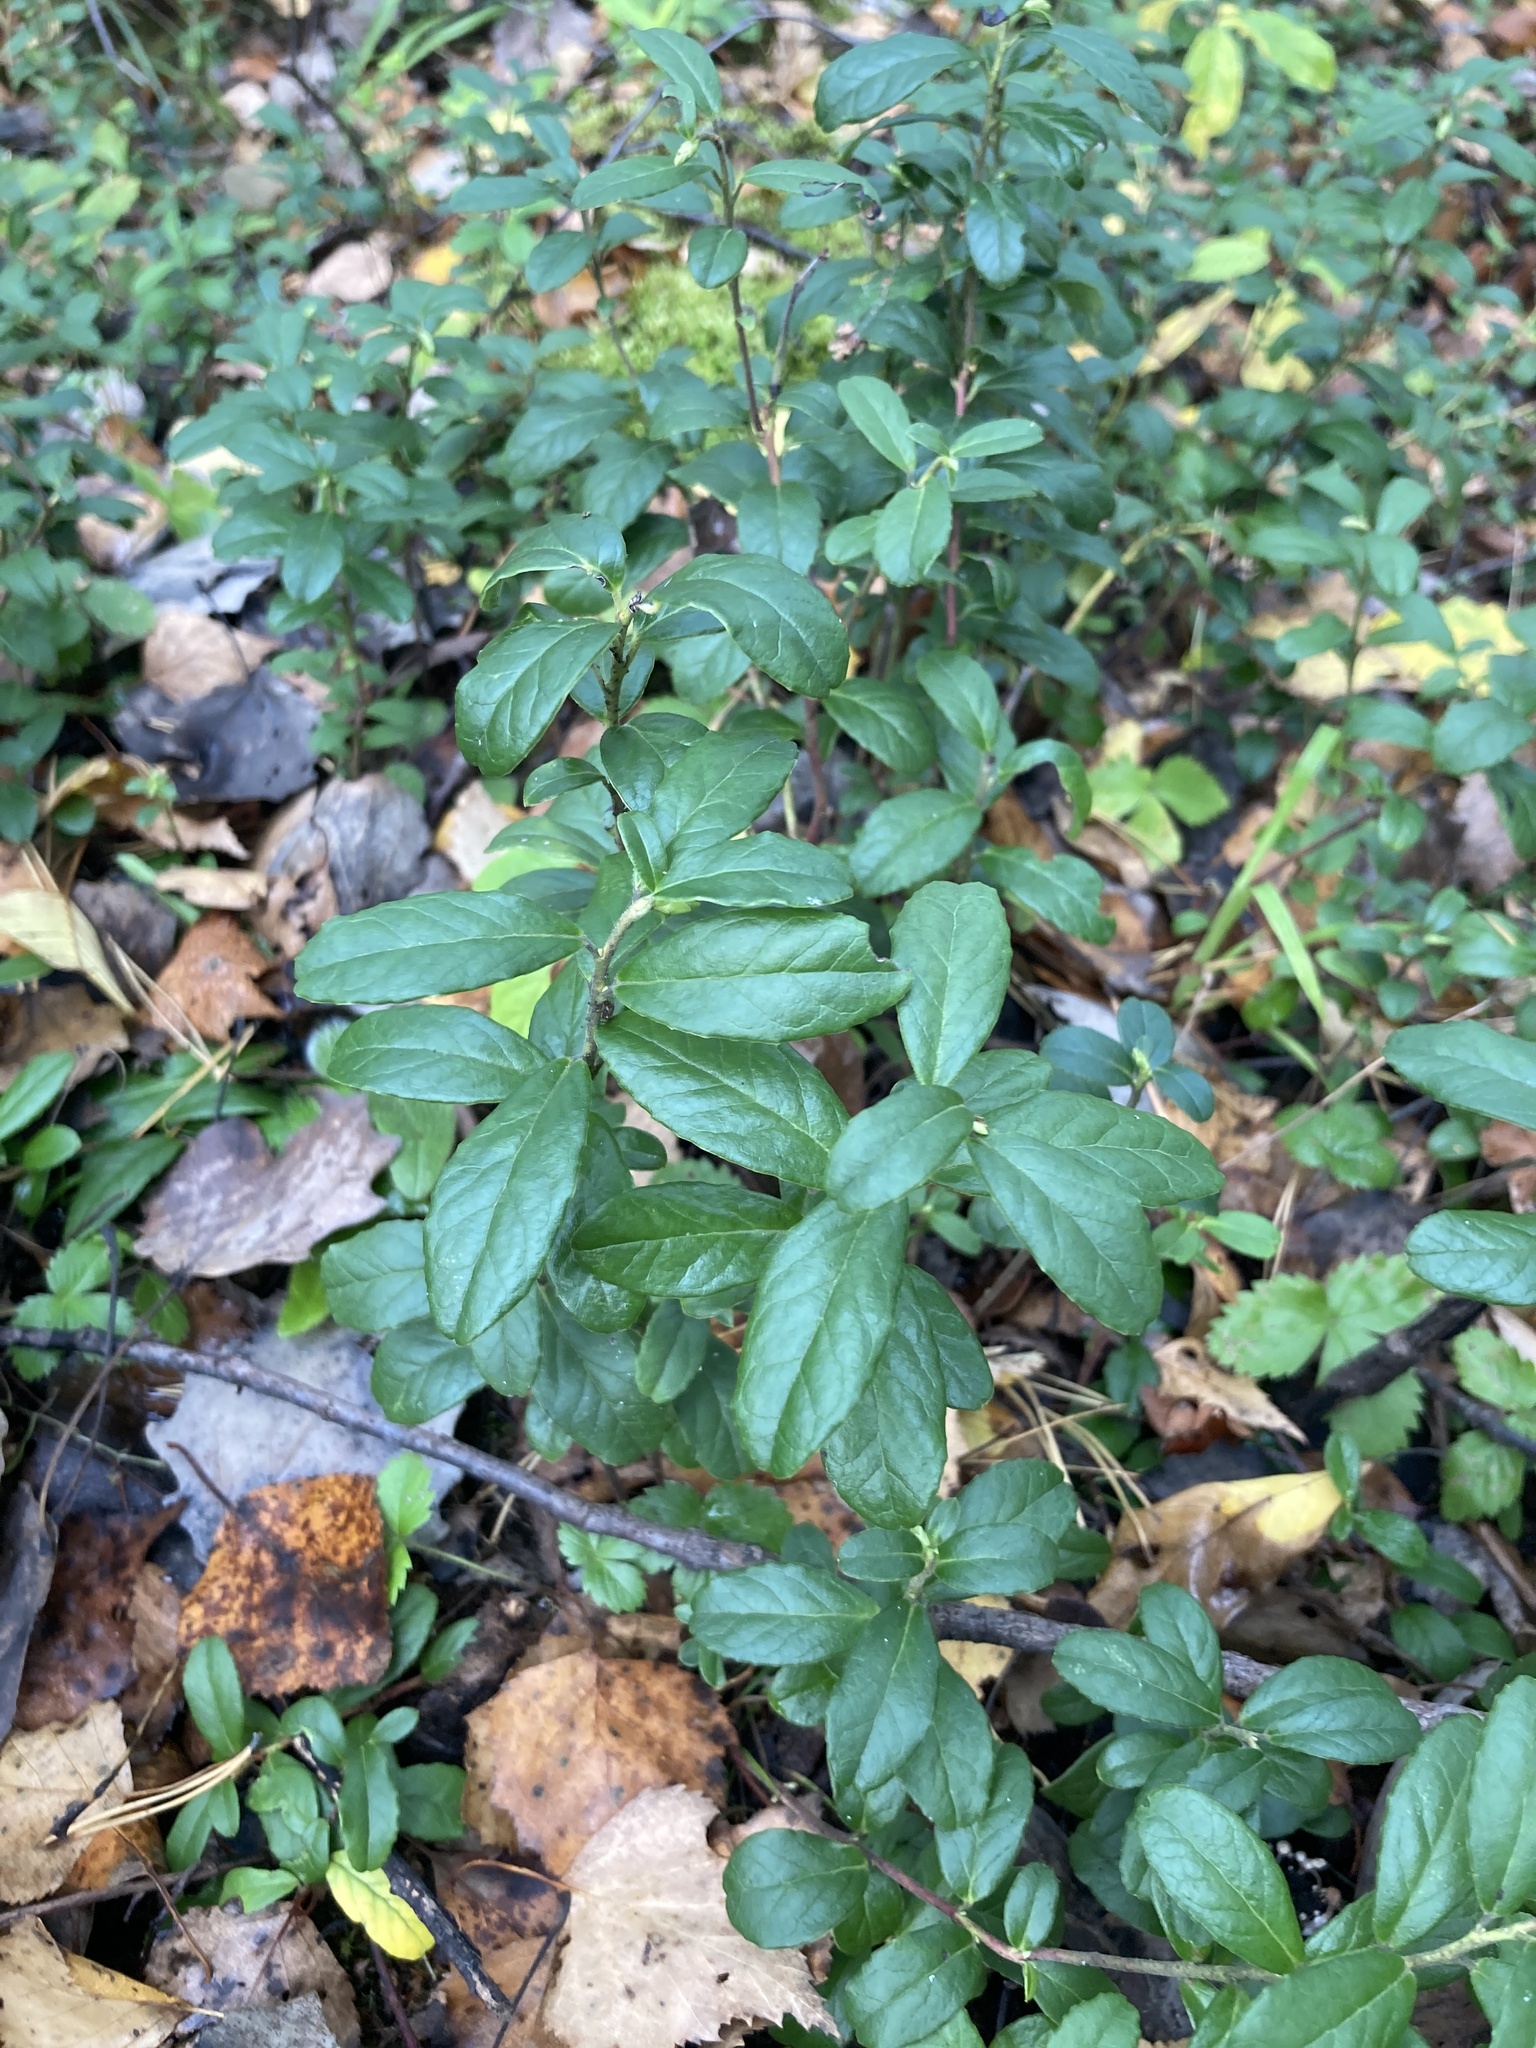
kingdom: Plantae
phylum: Tracheophyta
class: Magnoliopsida
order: Ericales
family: Ericaceae
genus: Vaccinium
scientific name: Vaccinium vitis-idaea
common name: Cowberry
